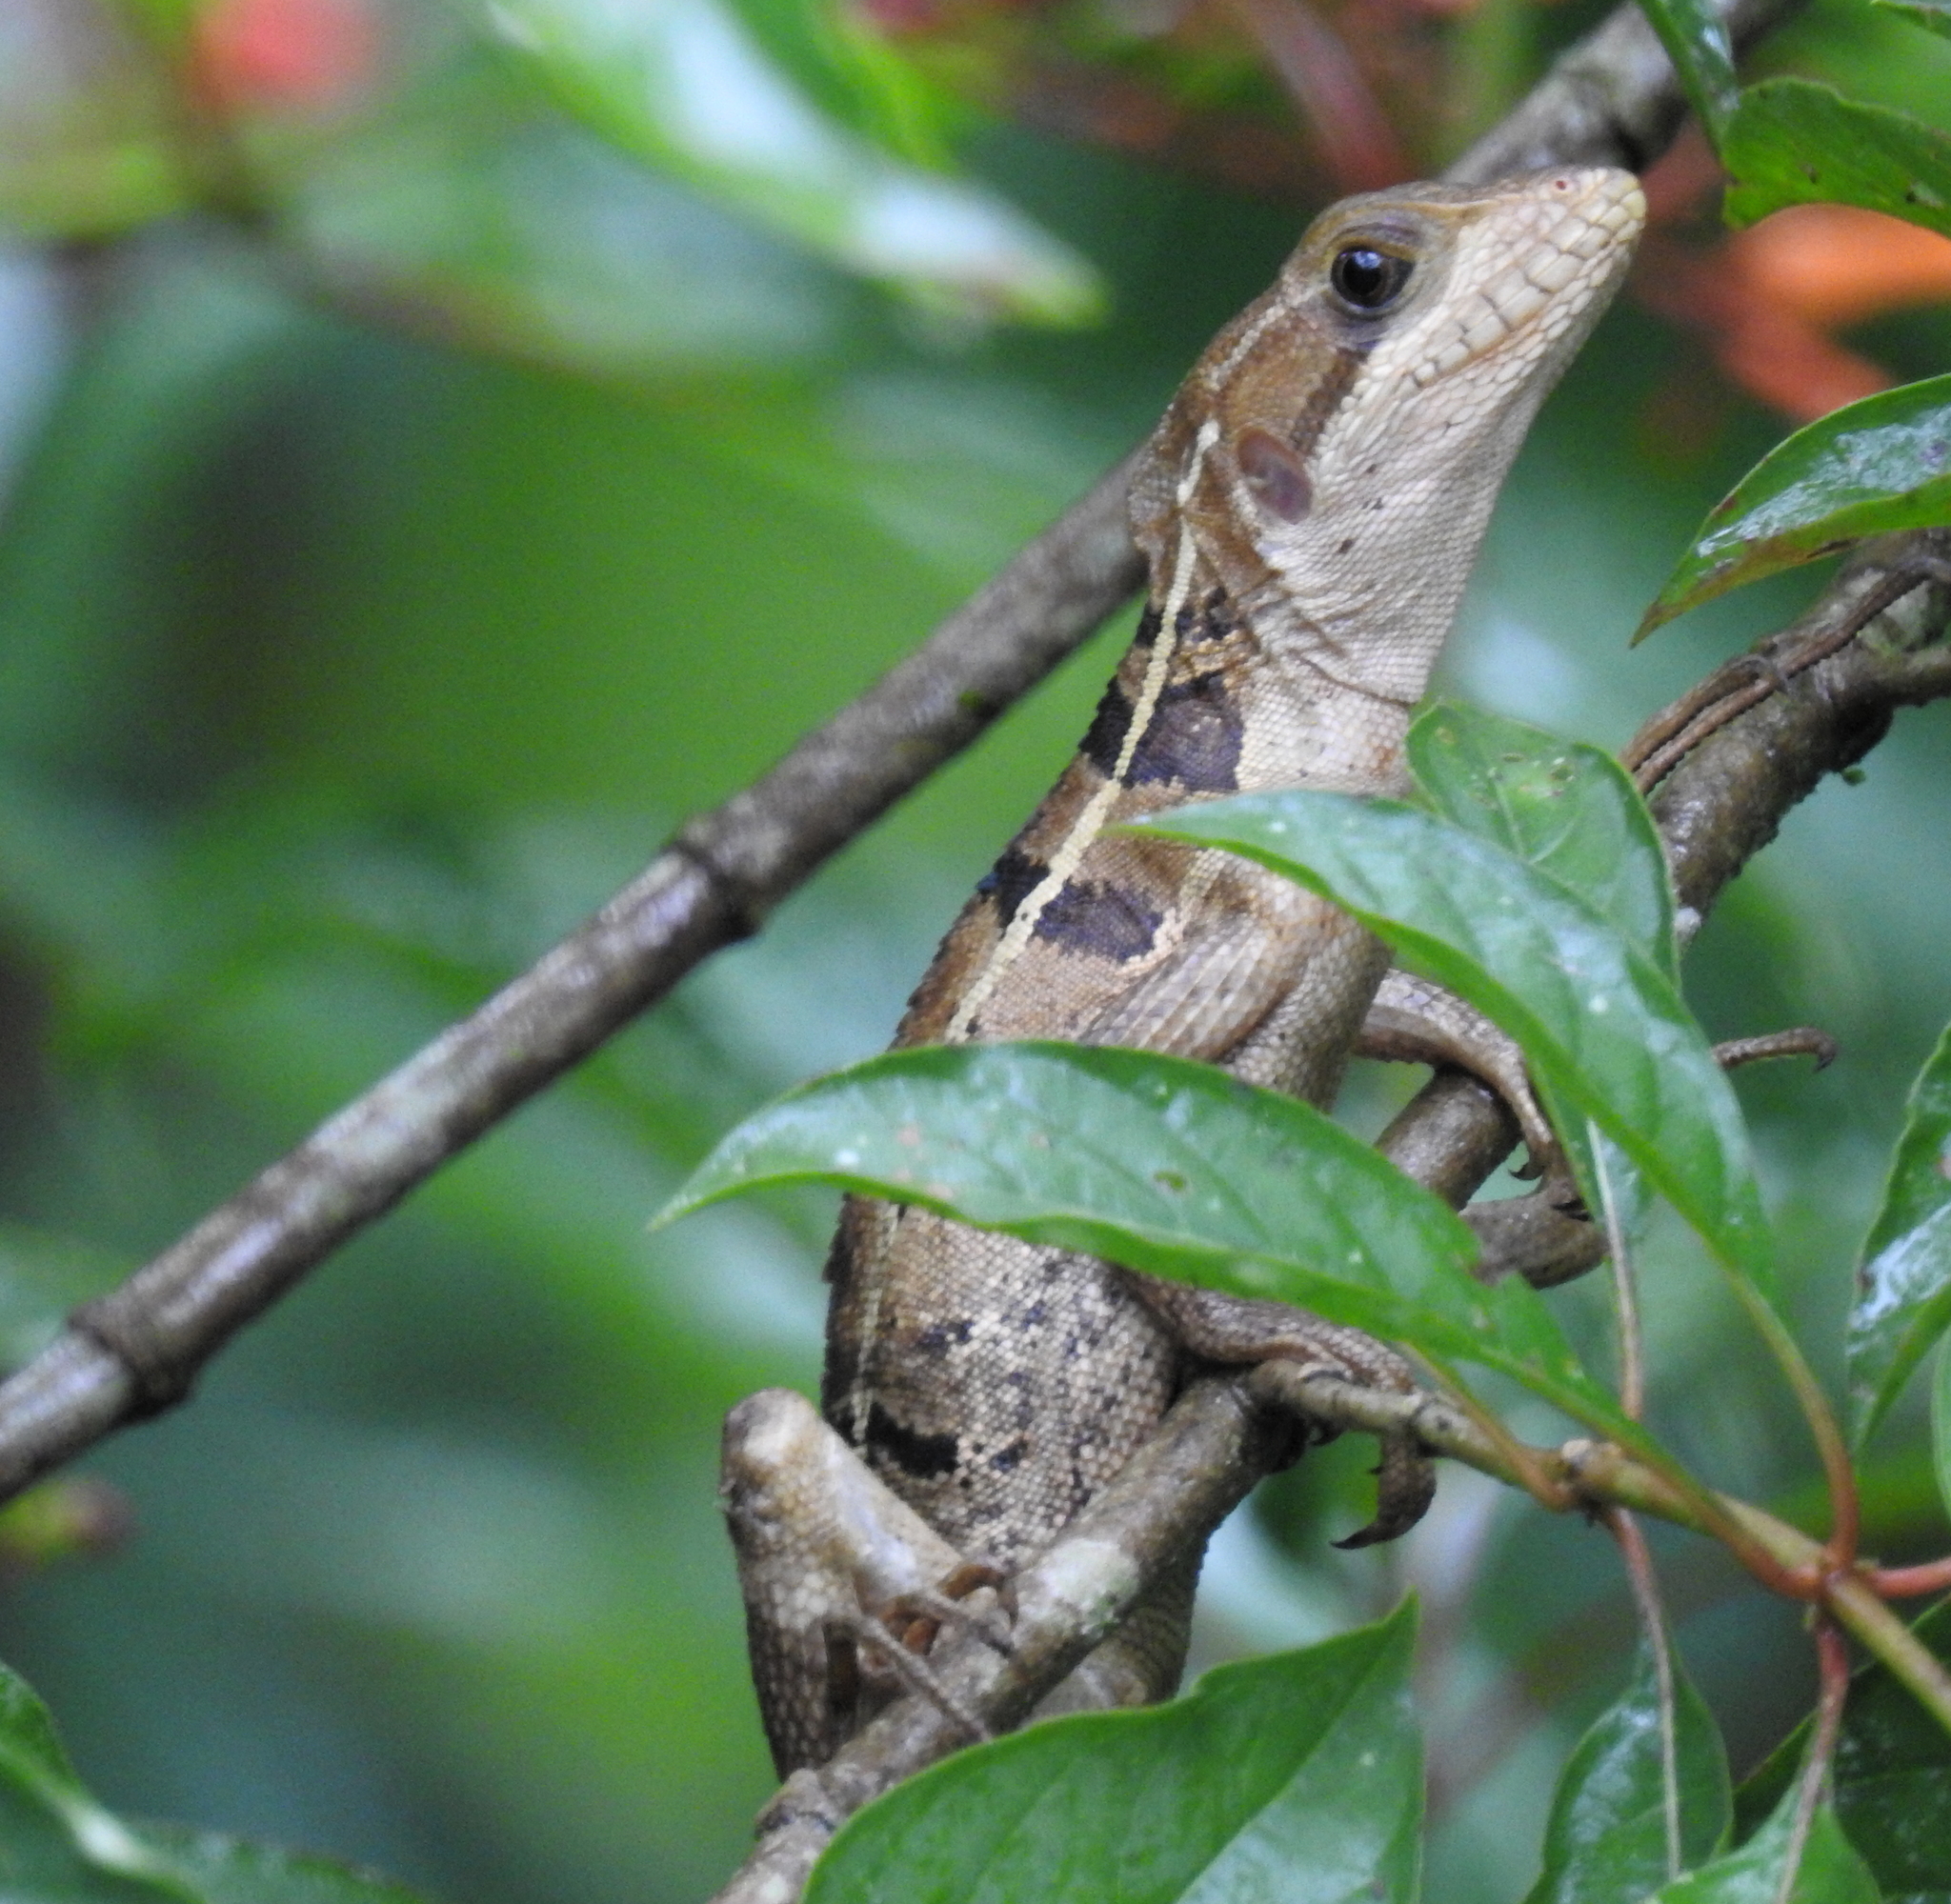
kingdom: Animalia
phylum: Chordata
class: Squamata
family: Corytophanidae
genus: Basiliscus
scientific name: Basiliscus vittatus
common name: Brown basilisk
